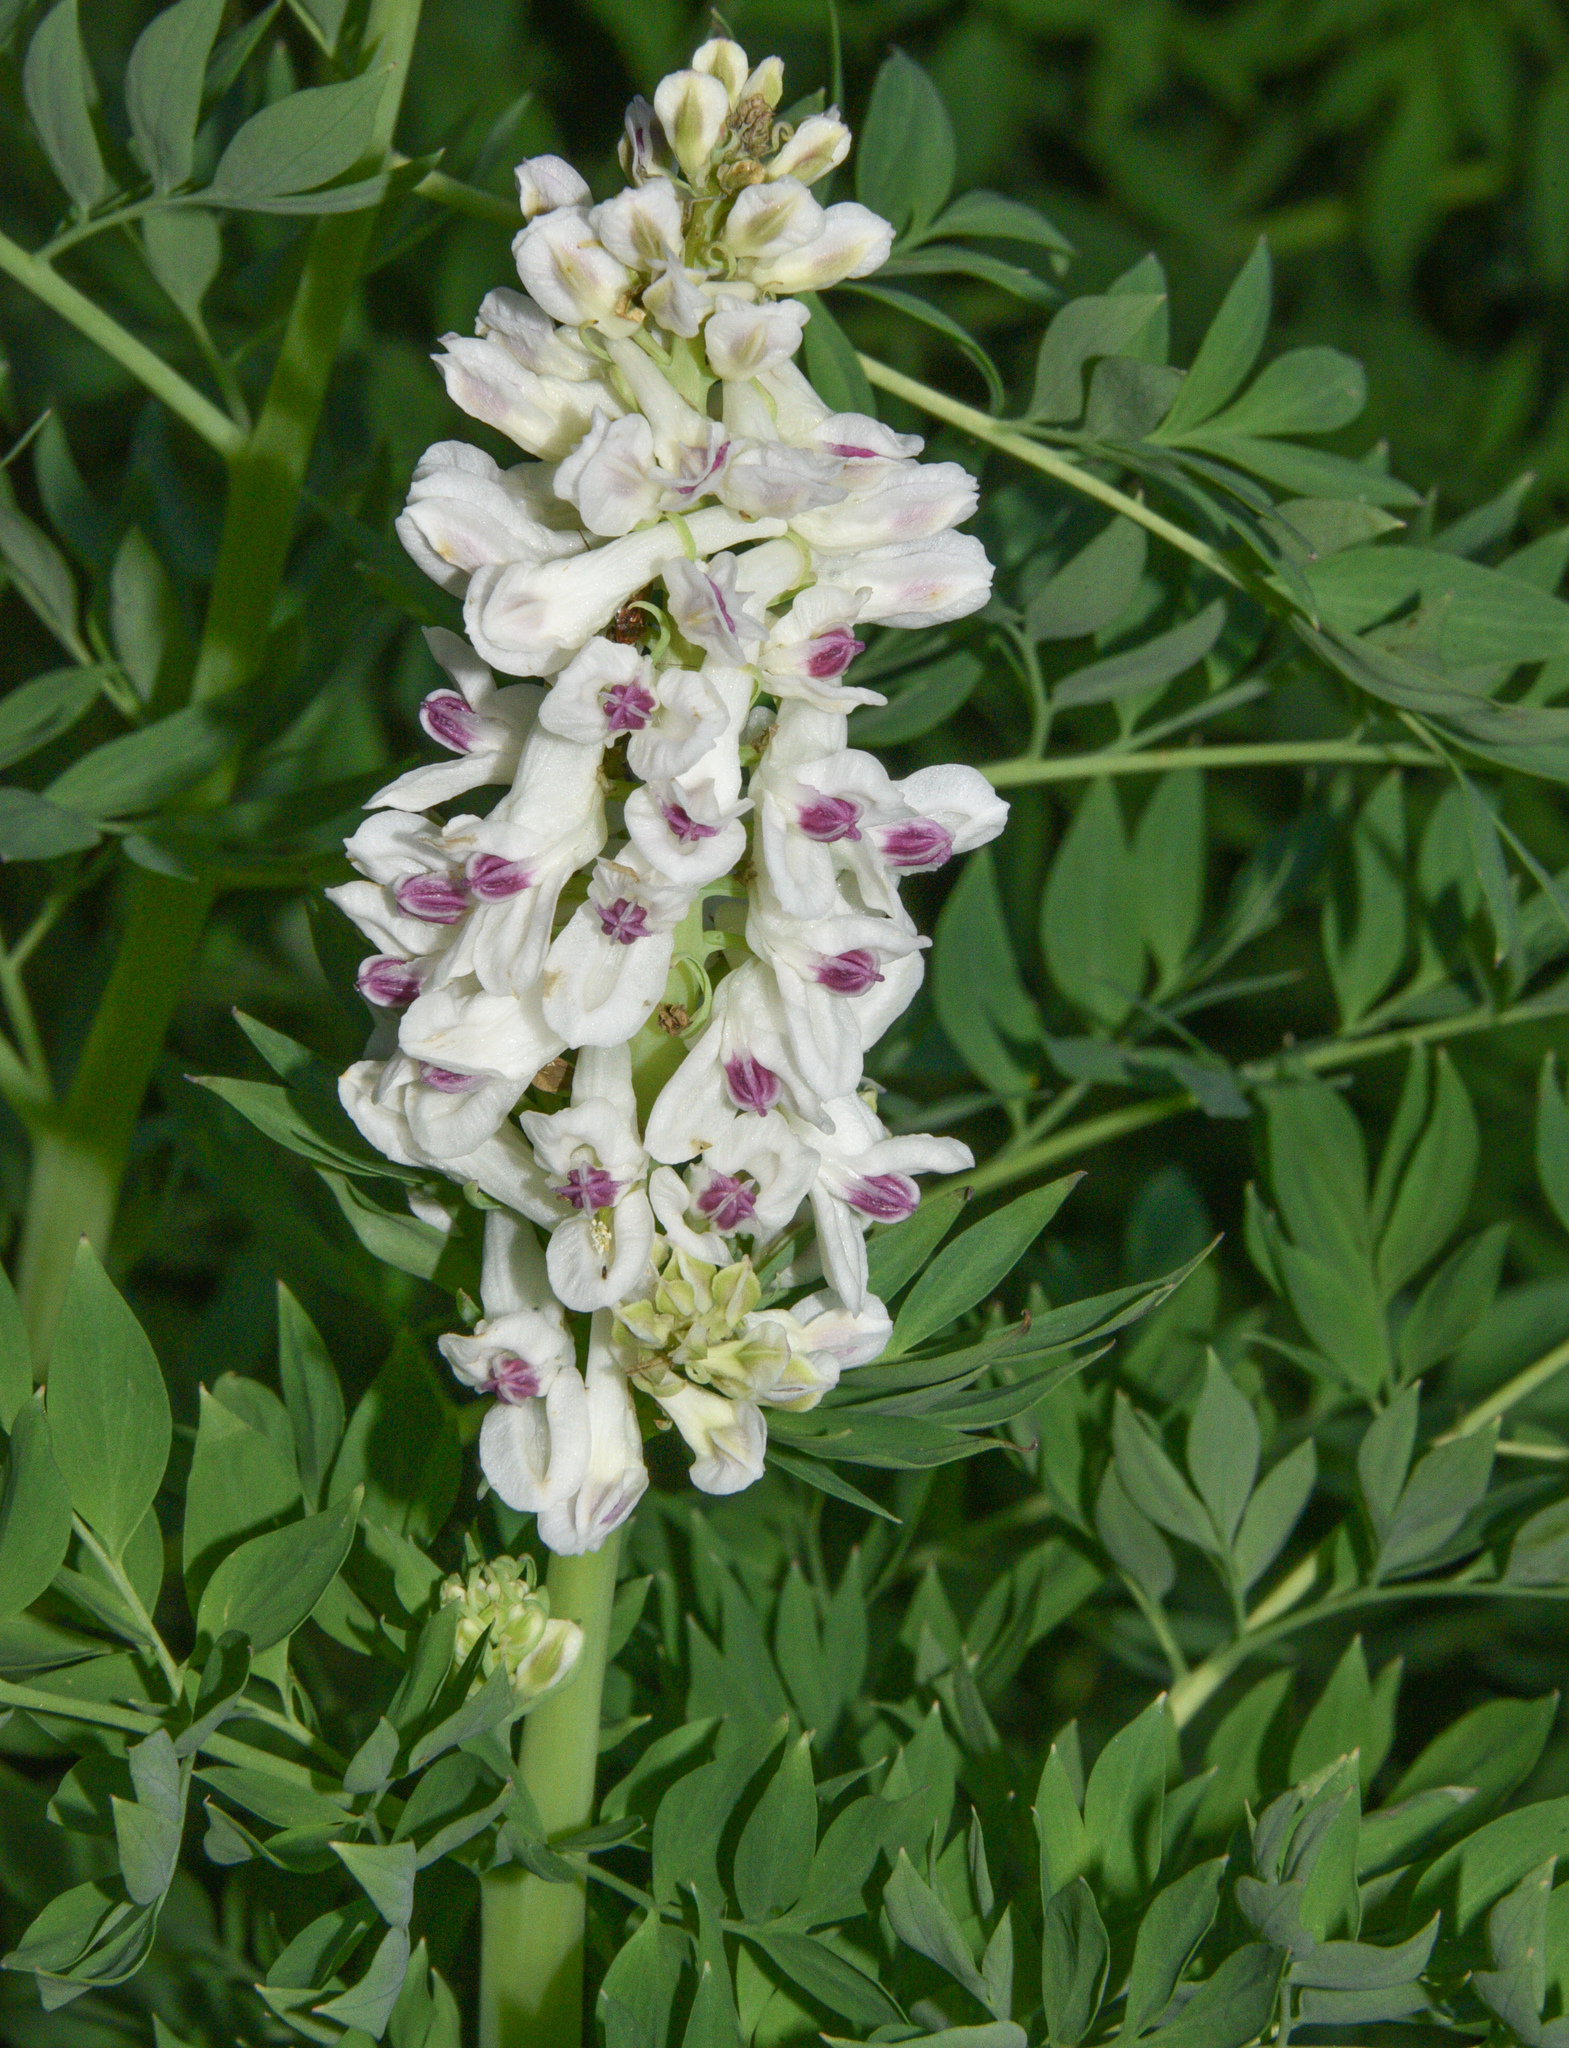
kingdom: Plantae
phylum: Tracheophyta
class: Magnoliopsida
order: Ranunculales
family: Papaveraceae
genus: Corydalis
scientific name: Corydalis caseana
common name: Fitweed
